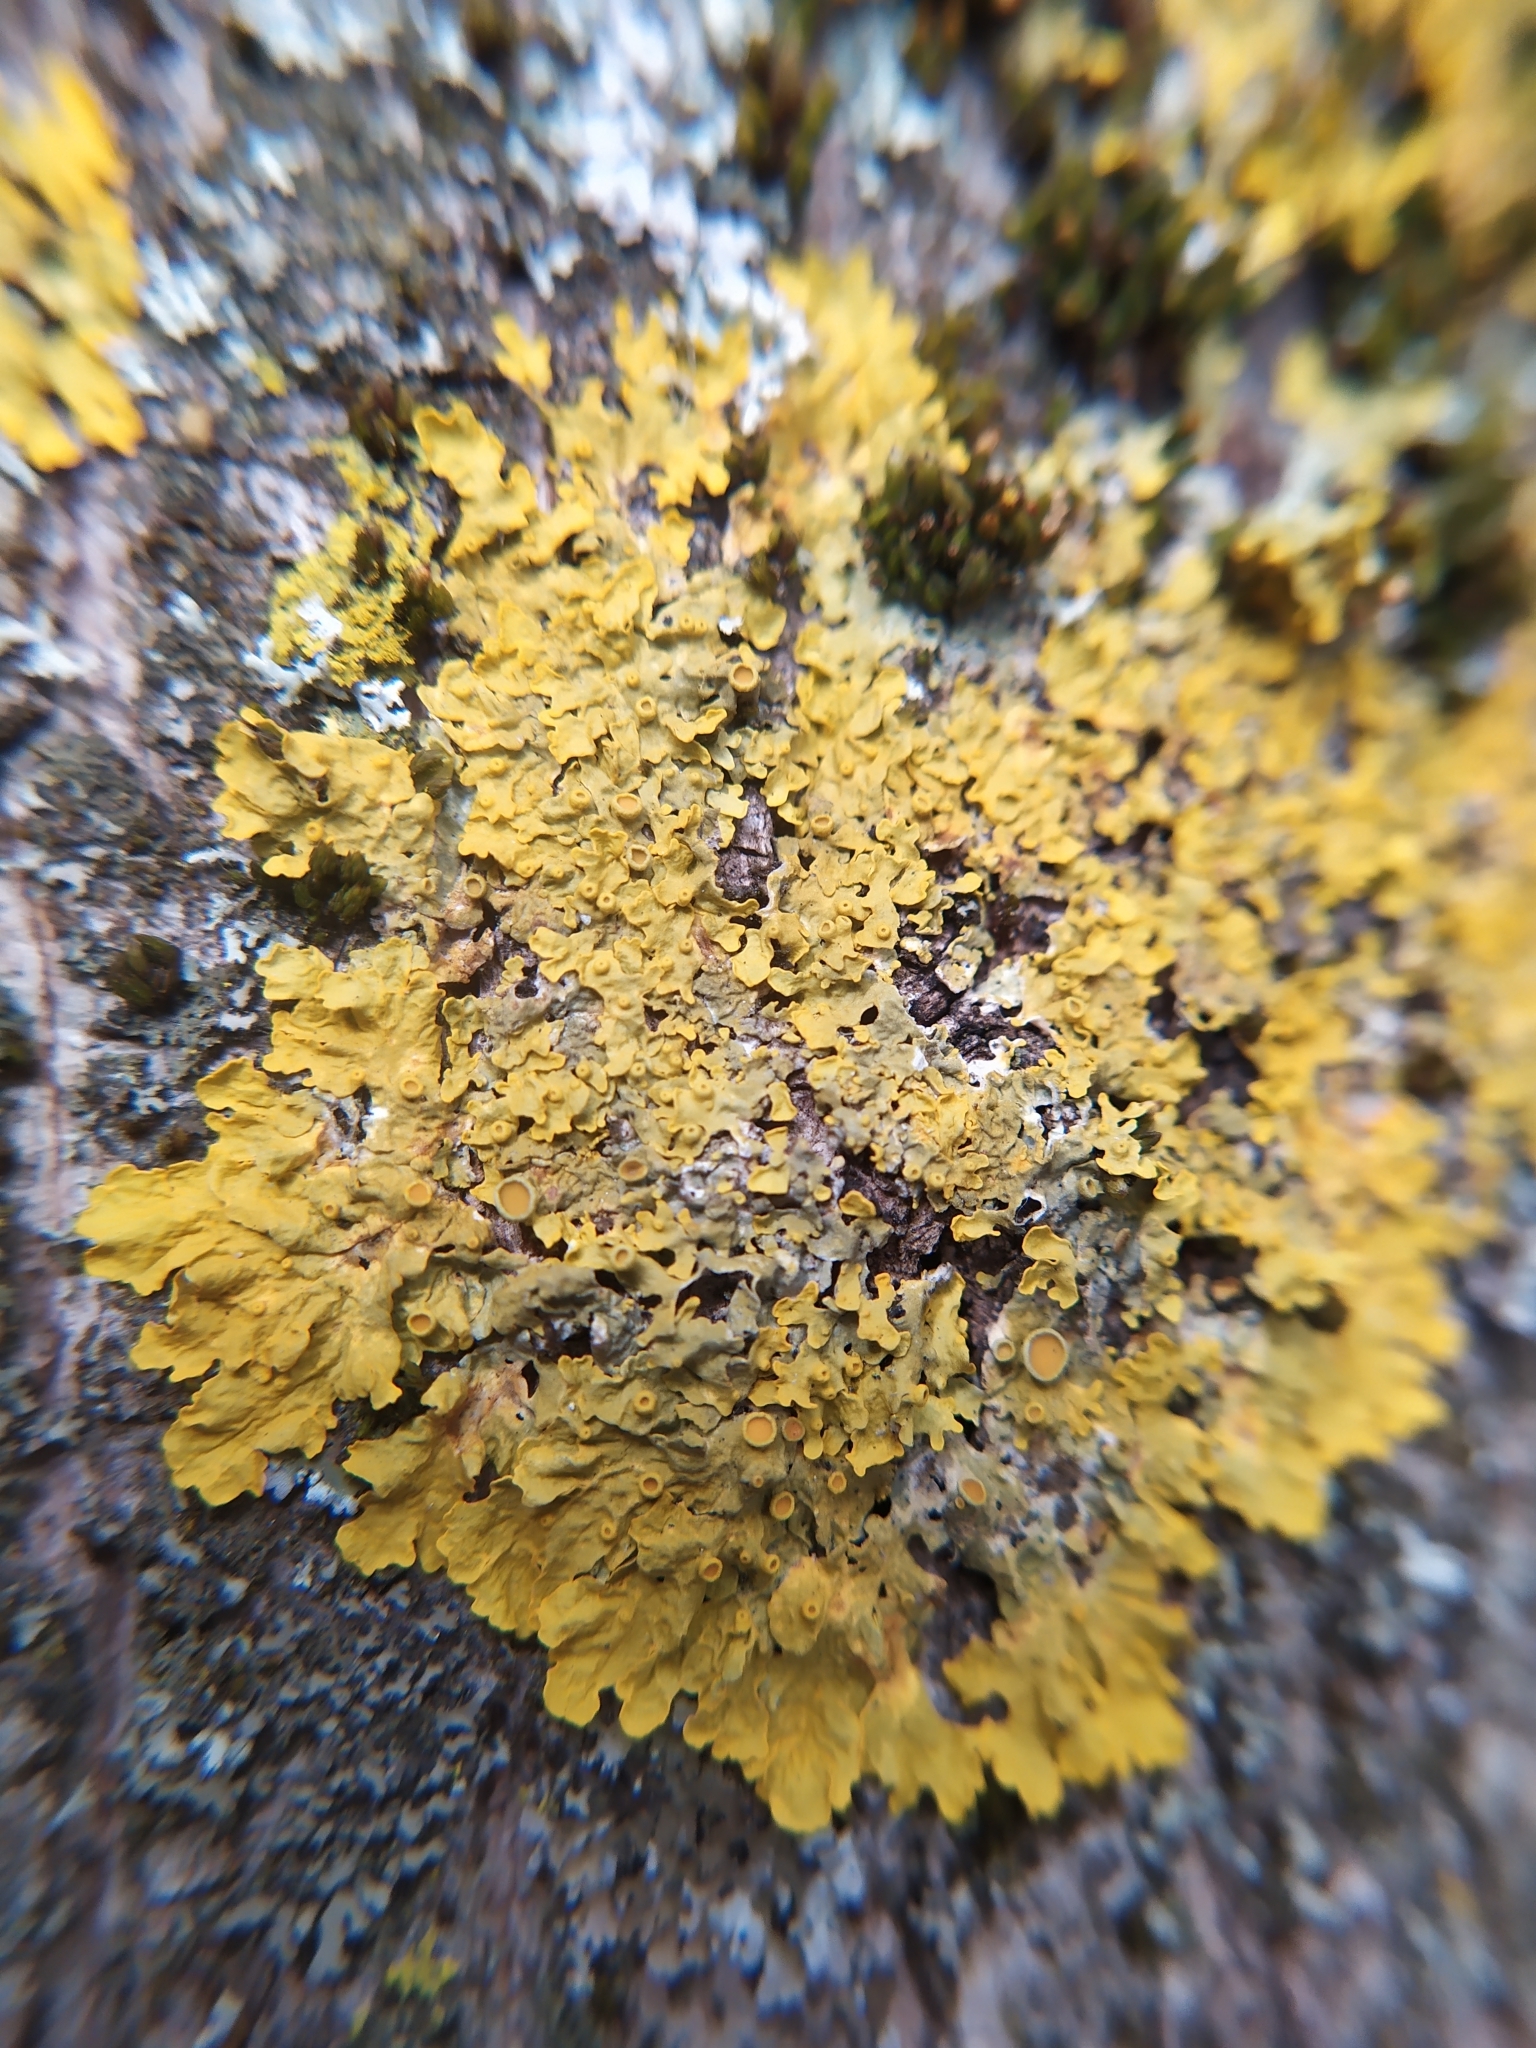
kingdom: Fungi
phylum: Ascomycota
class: Lecanoromycetes
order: Teloschistales
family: Teloschistaceae
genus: Xanthoria
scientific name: Xanthoria parietina
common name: Common orange lichen
